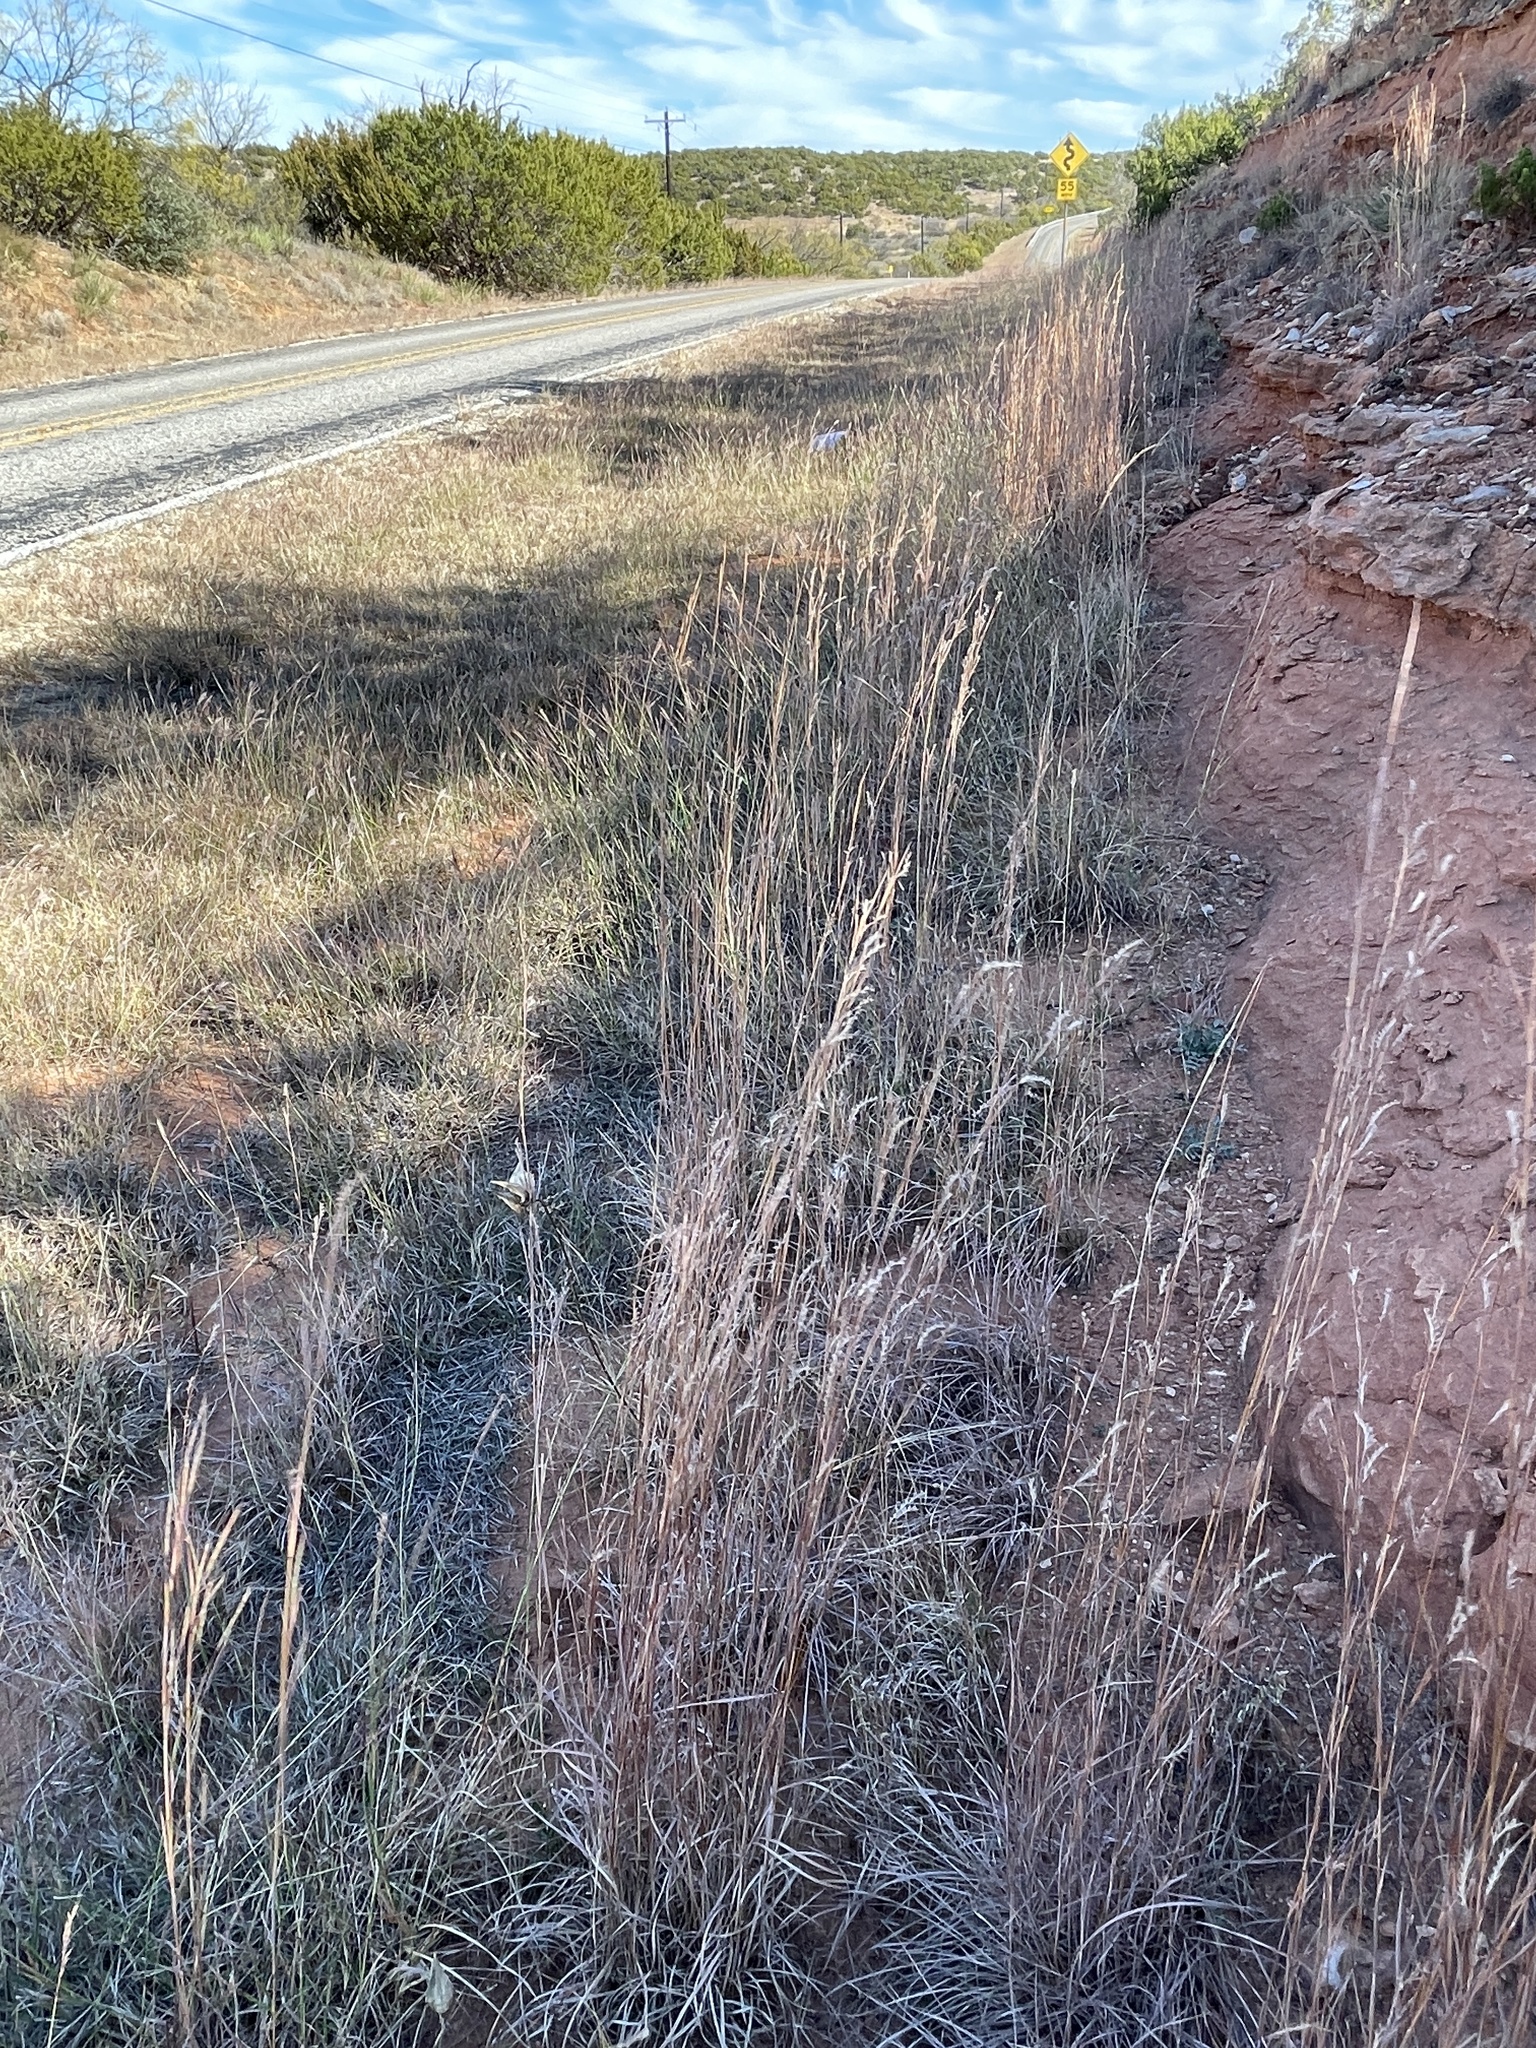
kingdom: Plantae
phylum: Tracheophyta
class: Liliopsida
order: Poales
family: Poaceae
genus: Schizachyrium
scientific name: Schizachyrium scoparium
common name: Little bluestem
